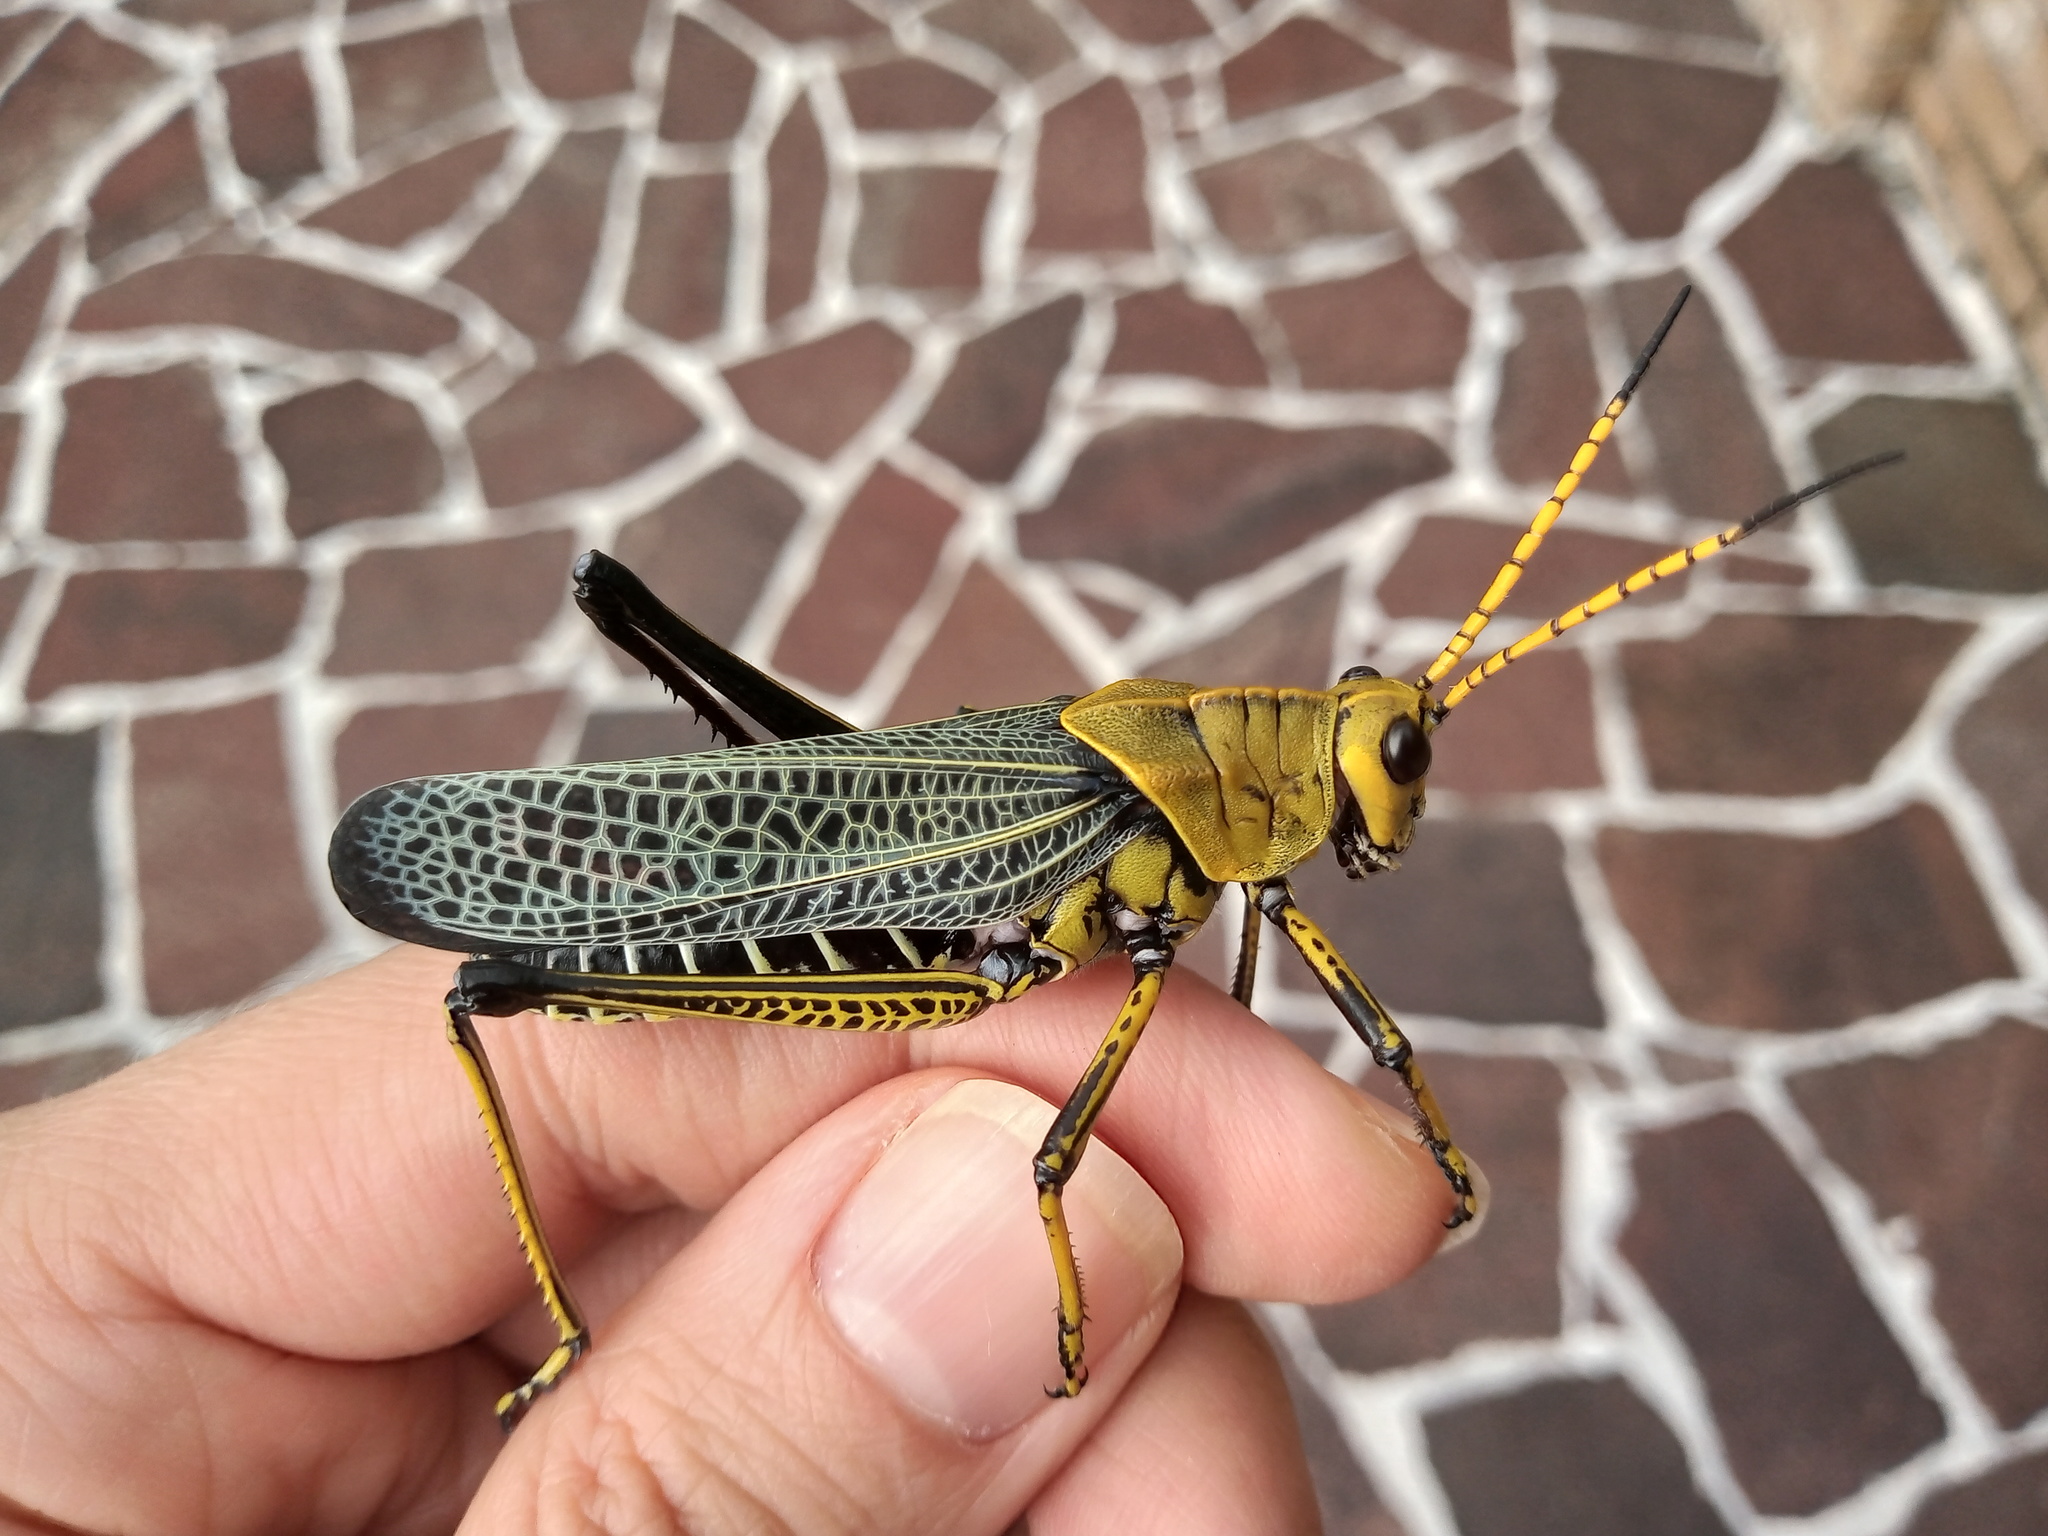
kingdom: Animalia
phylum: Arthropoda
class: Insecta
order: Orthoptera
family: Romaleidae
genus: Romalea
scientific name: Romalea
